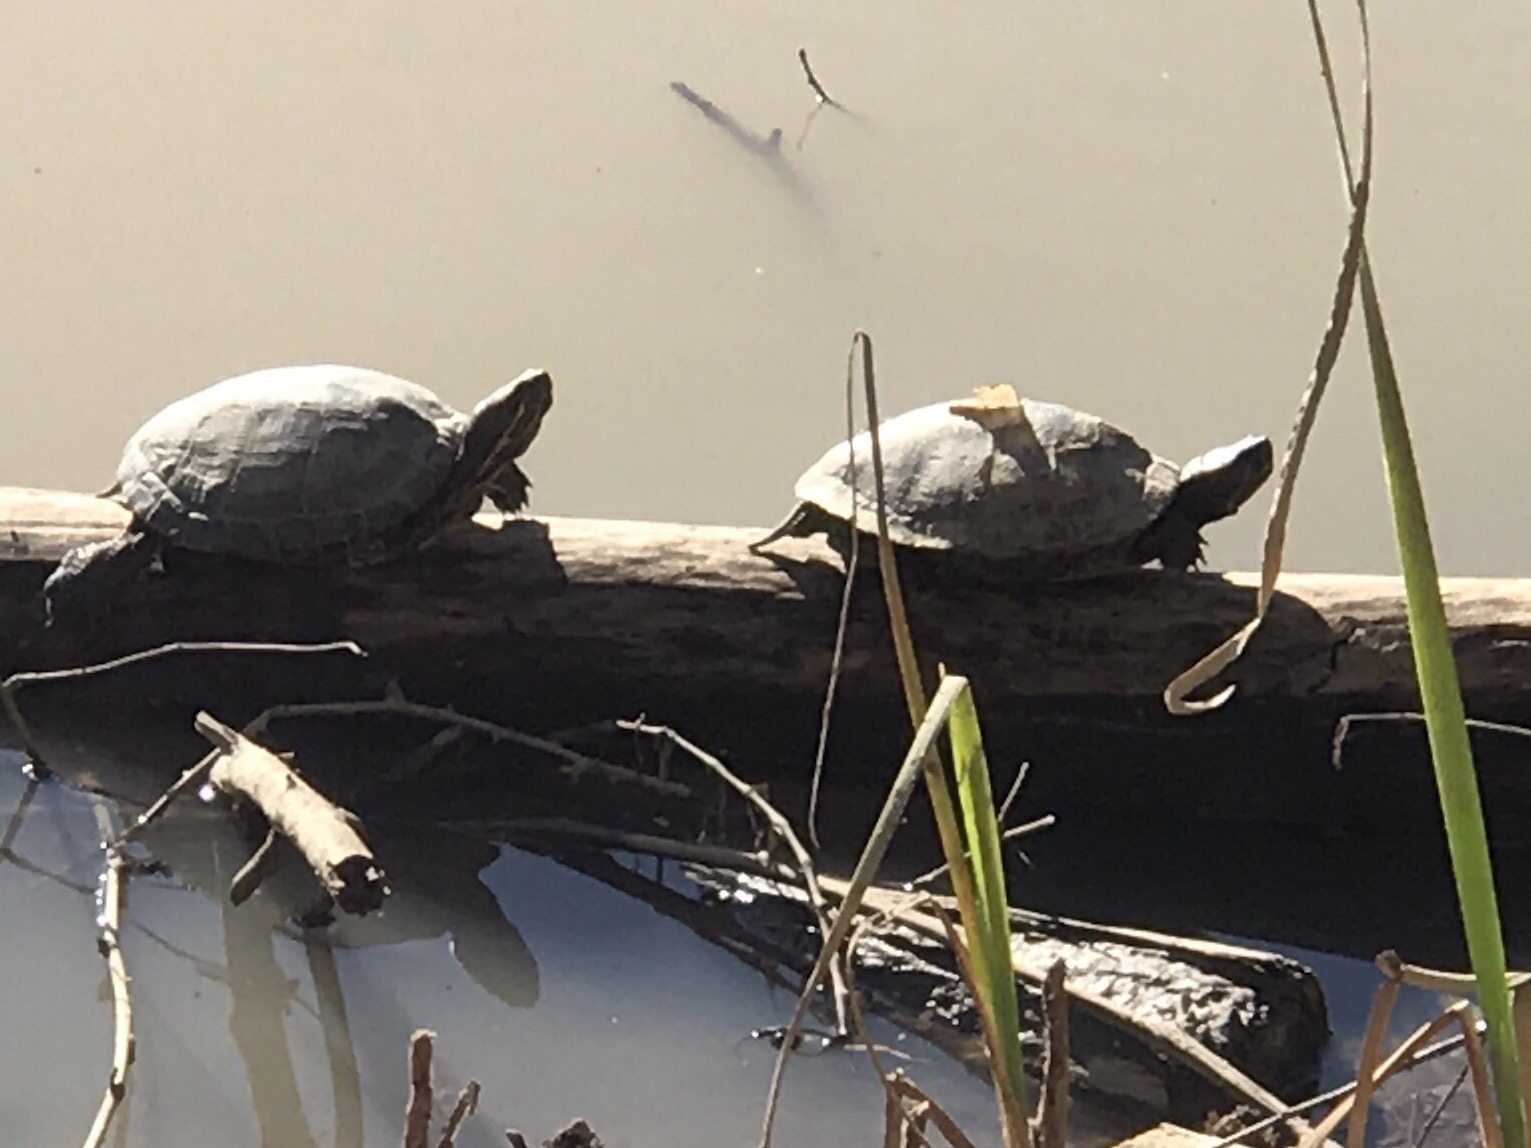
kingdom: Animalia
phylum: Chordata
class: Testudines
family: Emydidae
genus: Trachemys
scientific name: Trachemys scripta
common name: Slider
